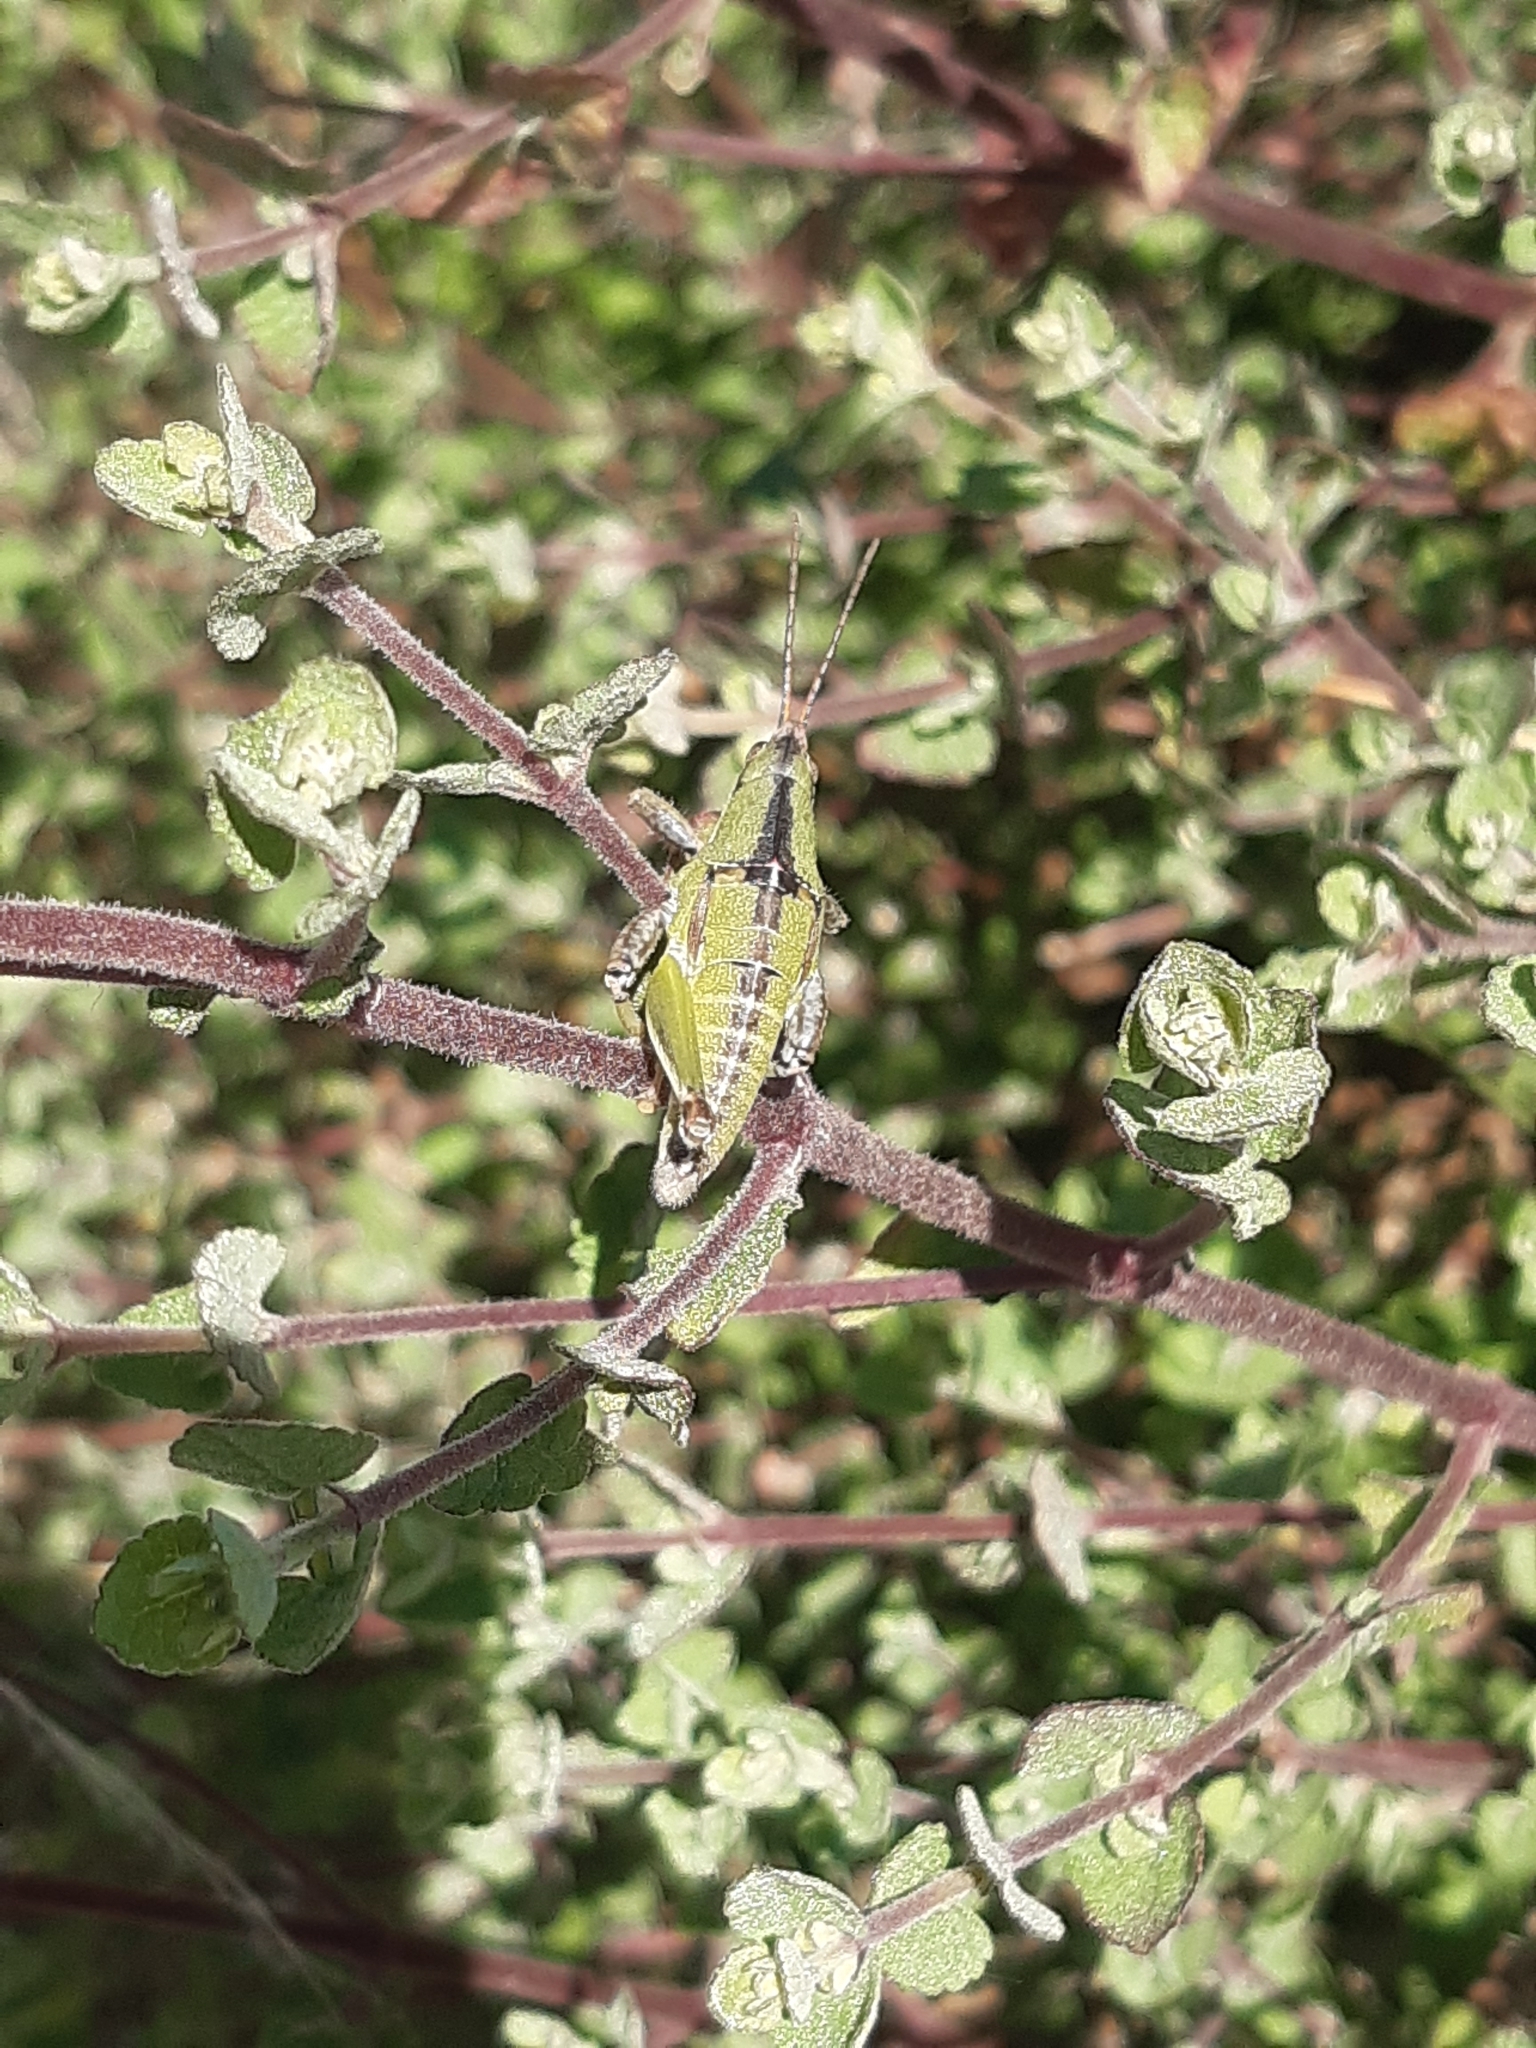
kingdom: Animalia
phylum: Arthropoda
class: Insecta
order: Orthoptera
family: Pyrgomorphidae
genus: Sphenarium
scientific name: Sphenarium purpurascens
